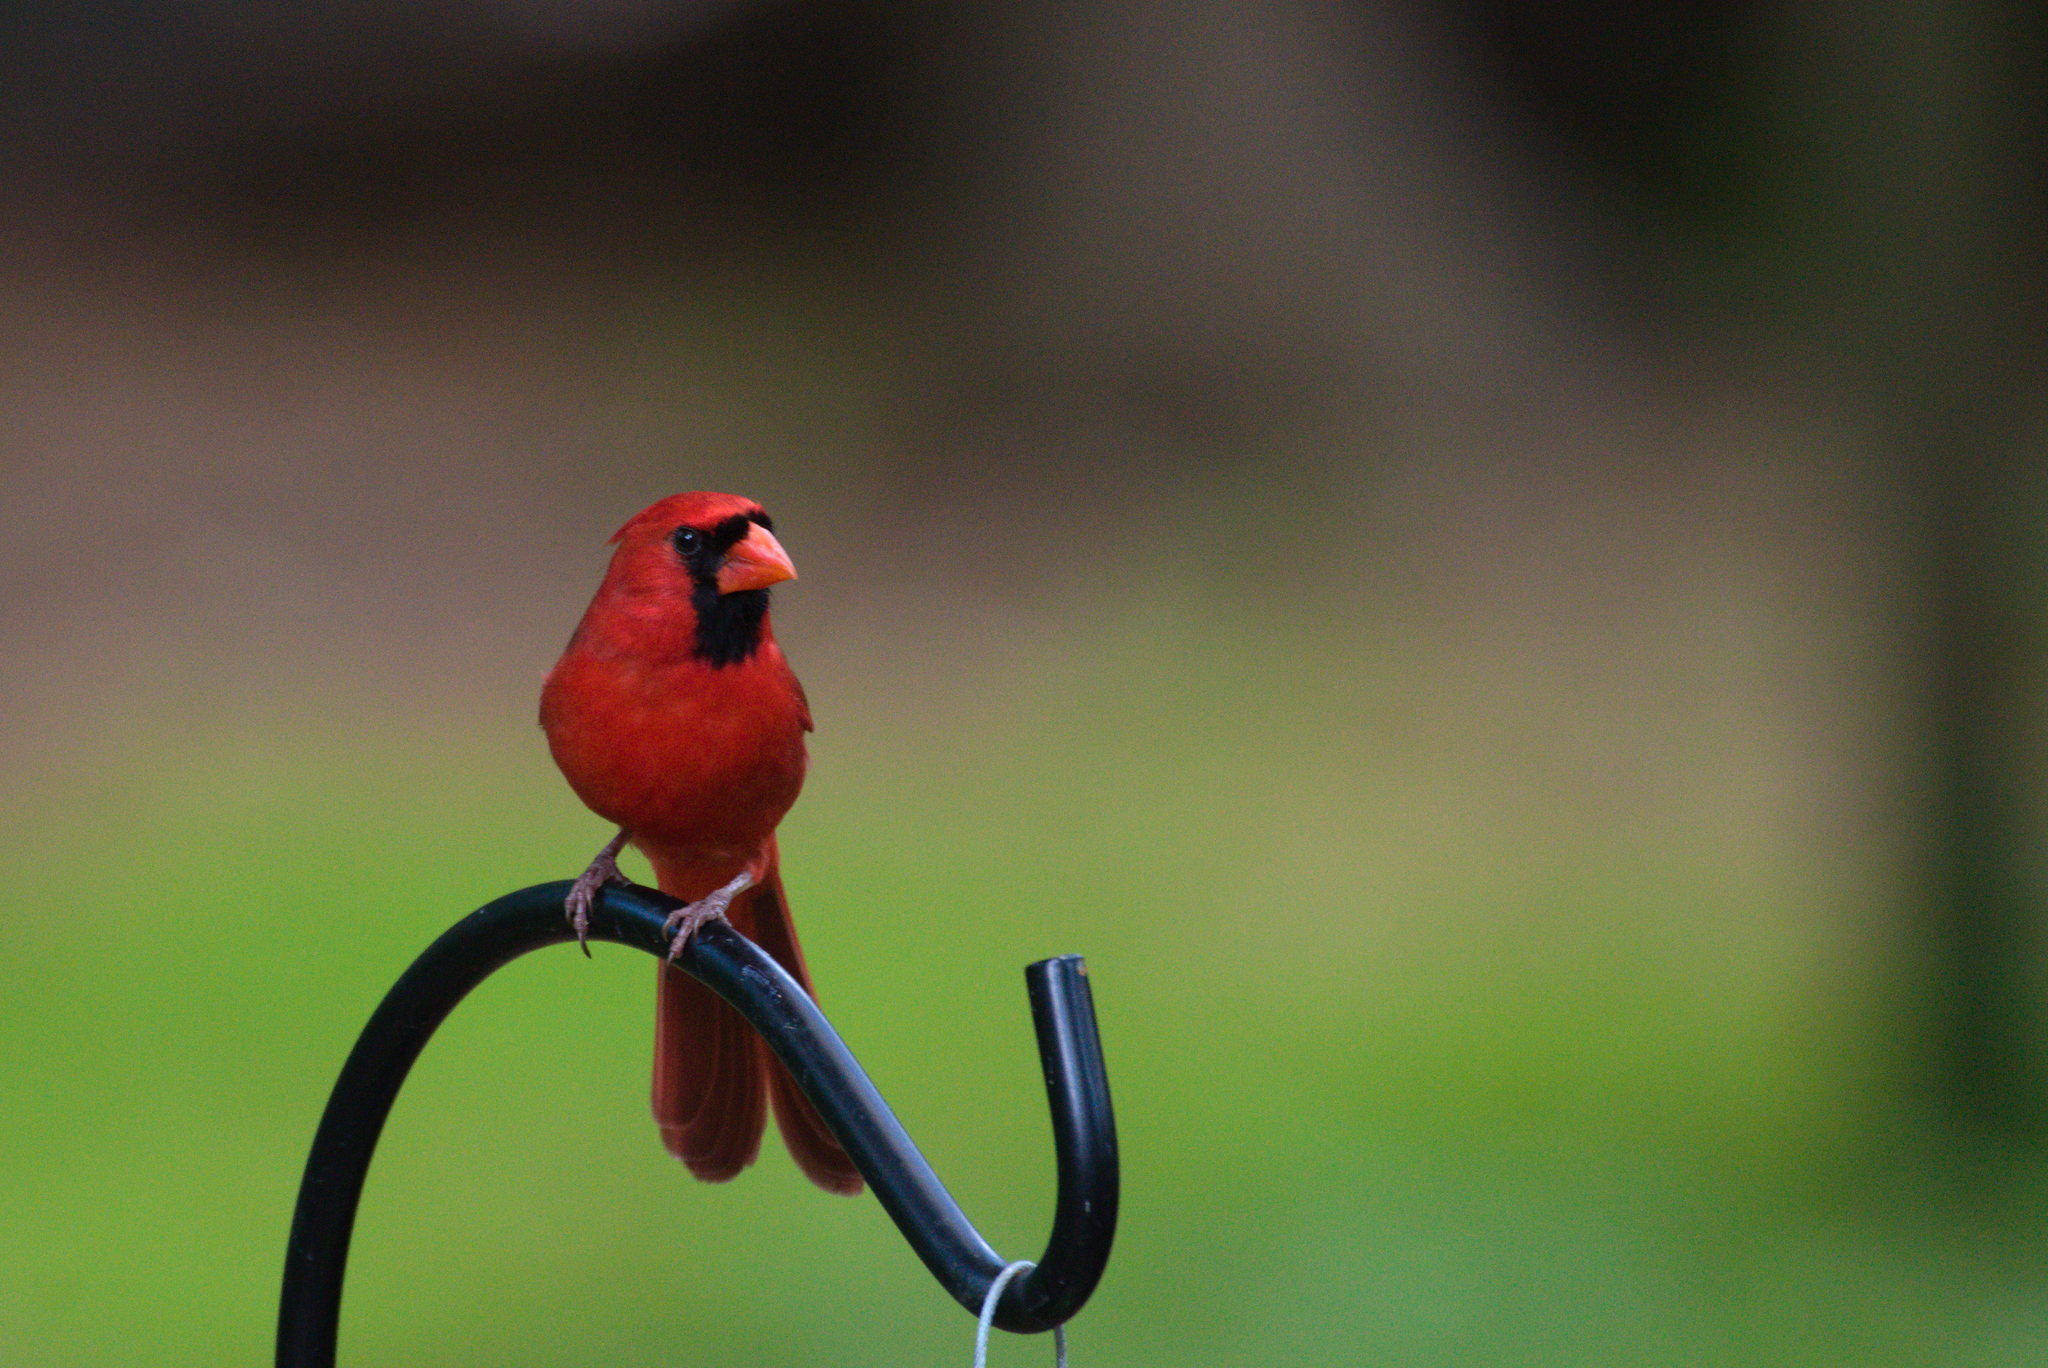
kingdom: Animalia
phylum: Chordata
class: Aves
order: Passeriformes
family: Cardinalidae
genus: Cardinalis
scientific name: Cardinalis cardinalis
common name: Northern cardinal
